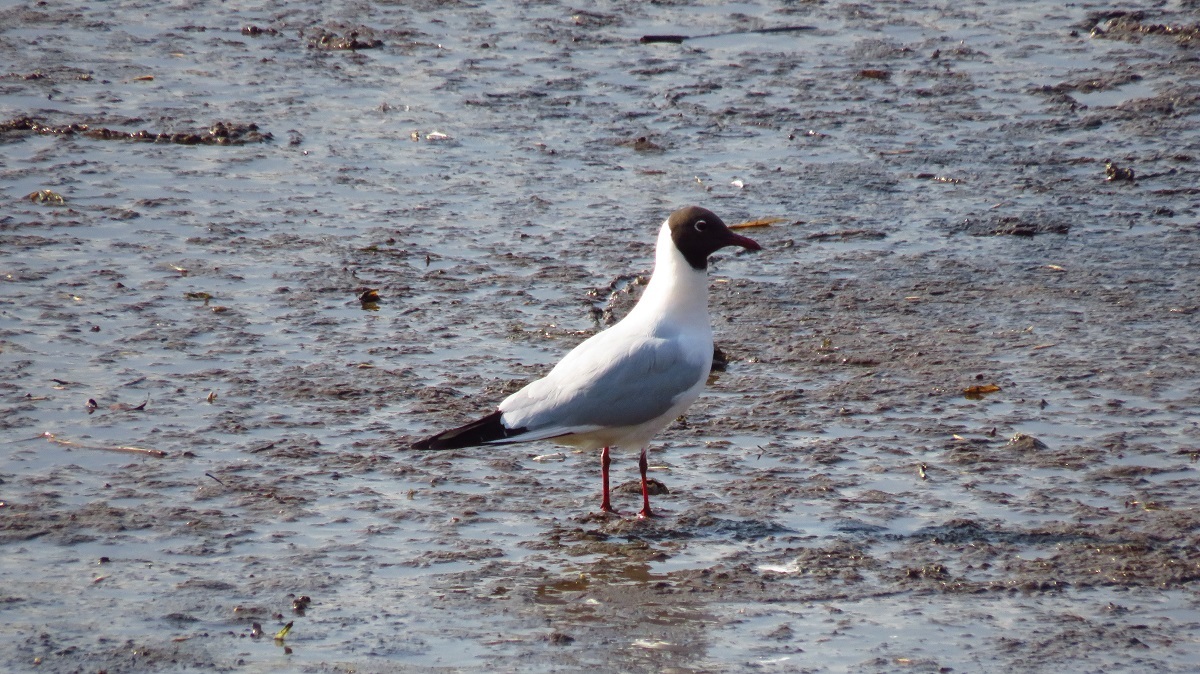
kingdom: Animalia
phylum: Chordata
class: Aves
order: Charadriiformes
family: Laridae
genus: Chroicocephalus
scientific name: Chroicocephalus ridibundus
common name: Black-headed gull
